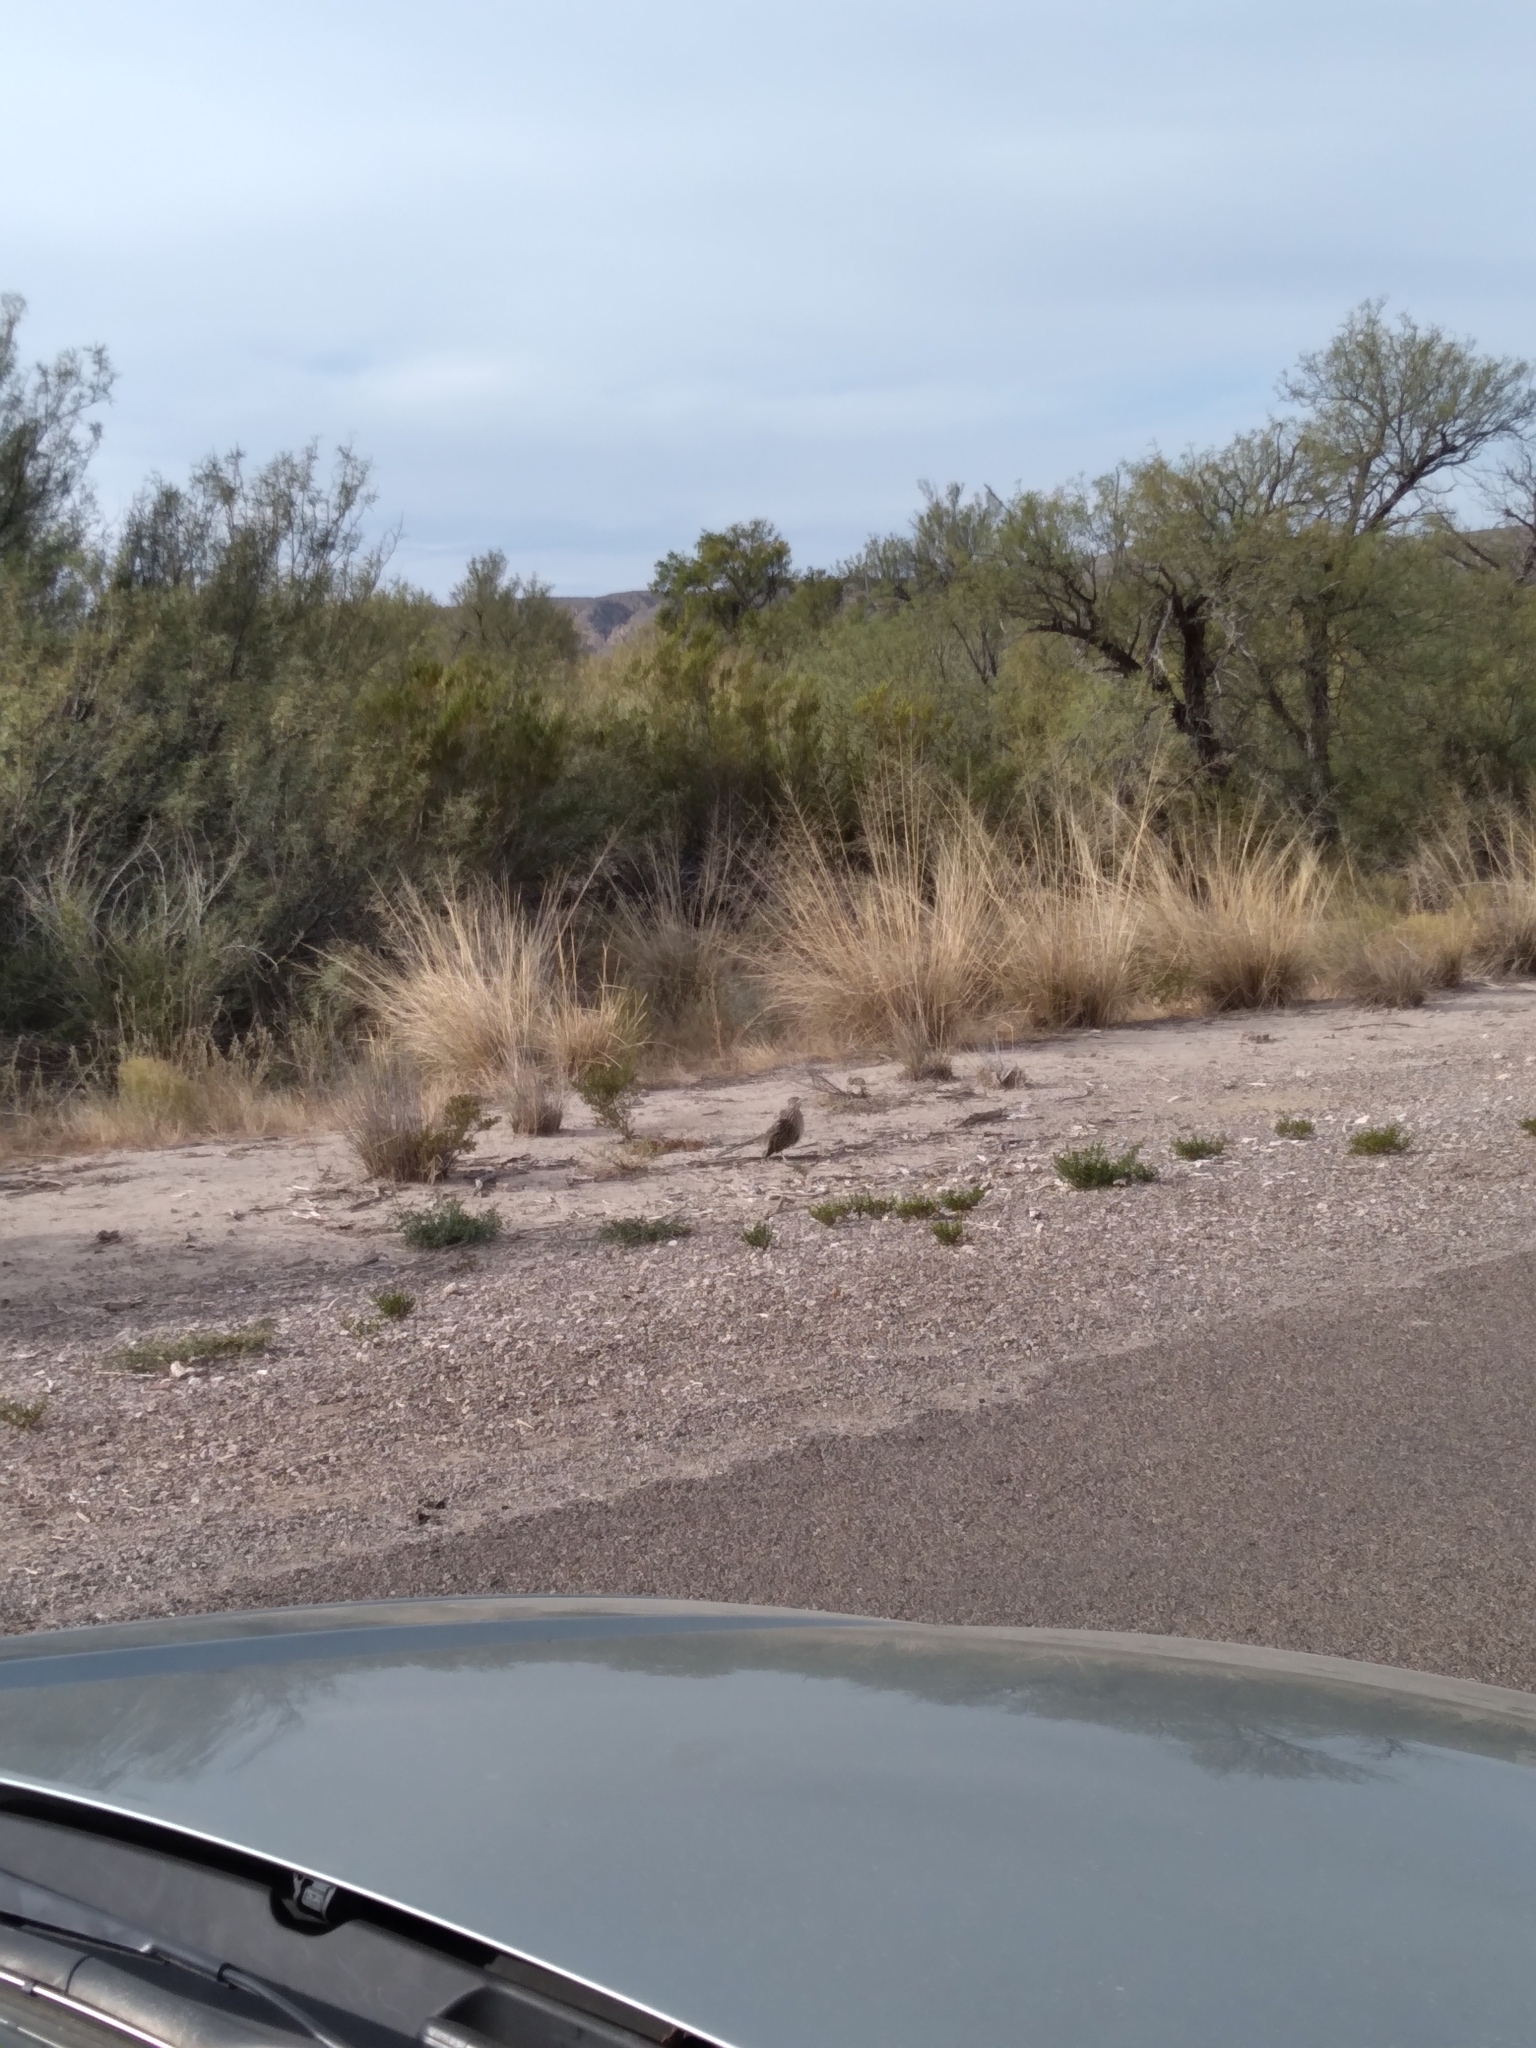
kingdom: Animalia
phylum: Chordata
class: Aves
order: Cuculiformes
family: Cuculidae
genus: Geococcyx
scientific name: Geococcyx californianus
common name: Greater roadrunner
